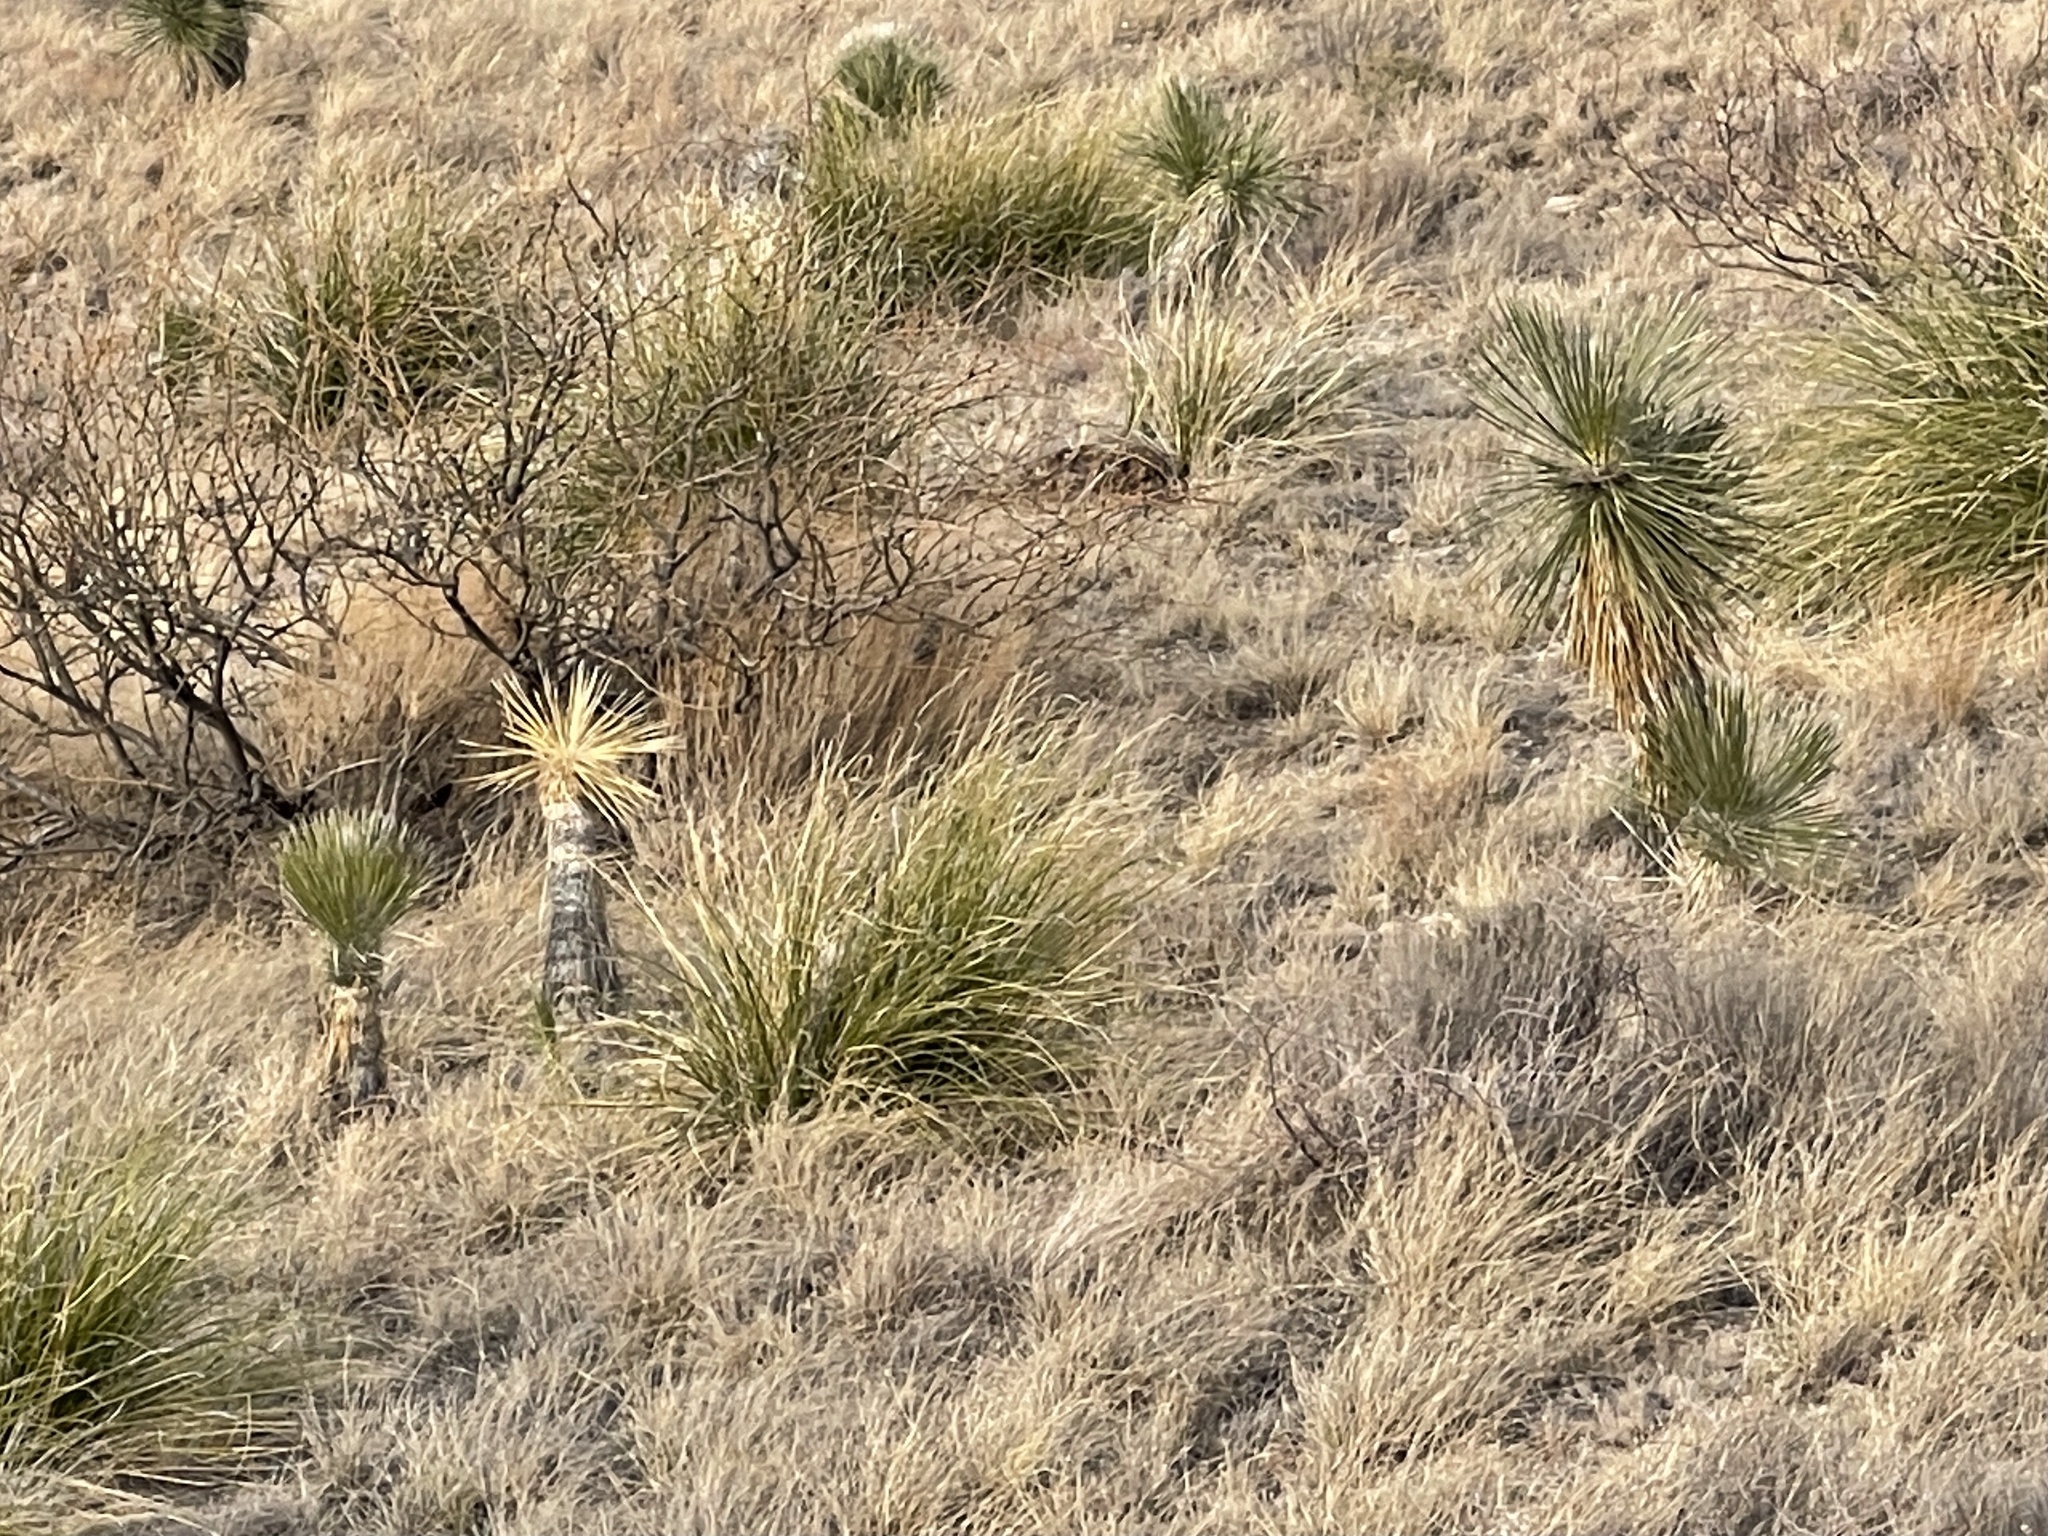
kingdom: Plantae
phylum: Tracheophyta
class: Liliopsida
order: Asparagales
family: Asparagaceae
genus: Yucca
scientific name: Yucca elata
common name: Palmella
